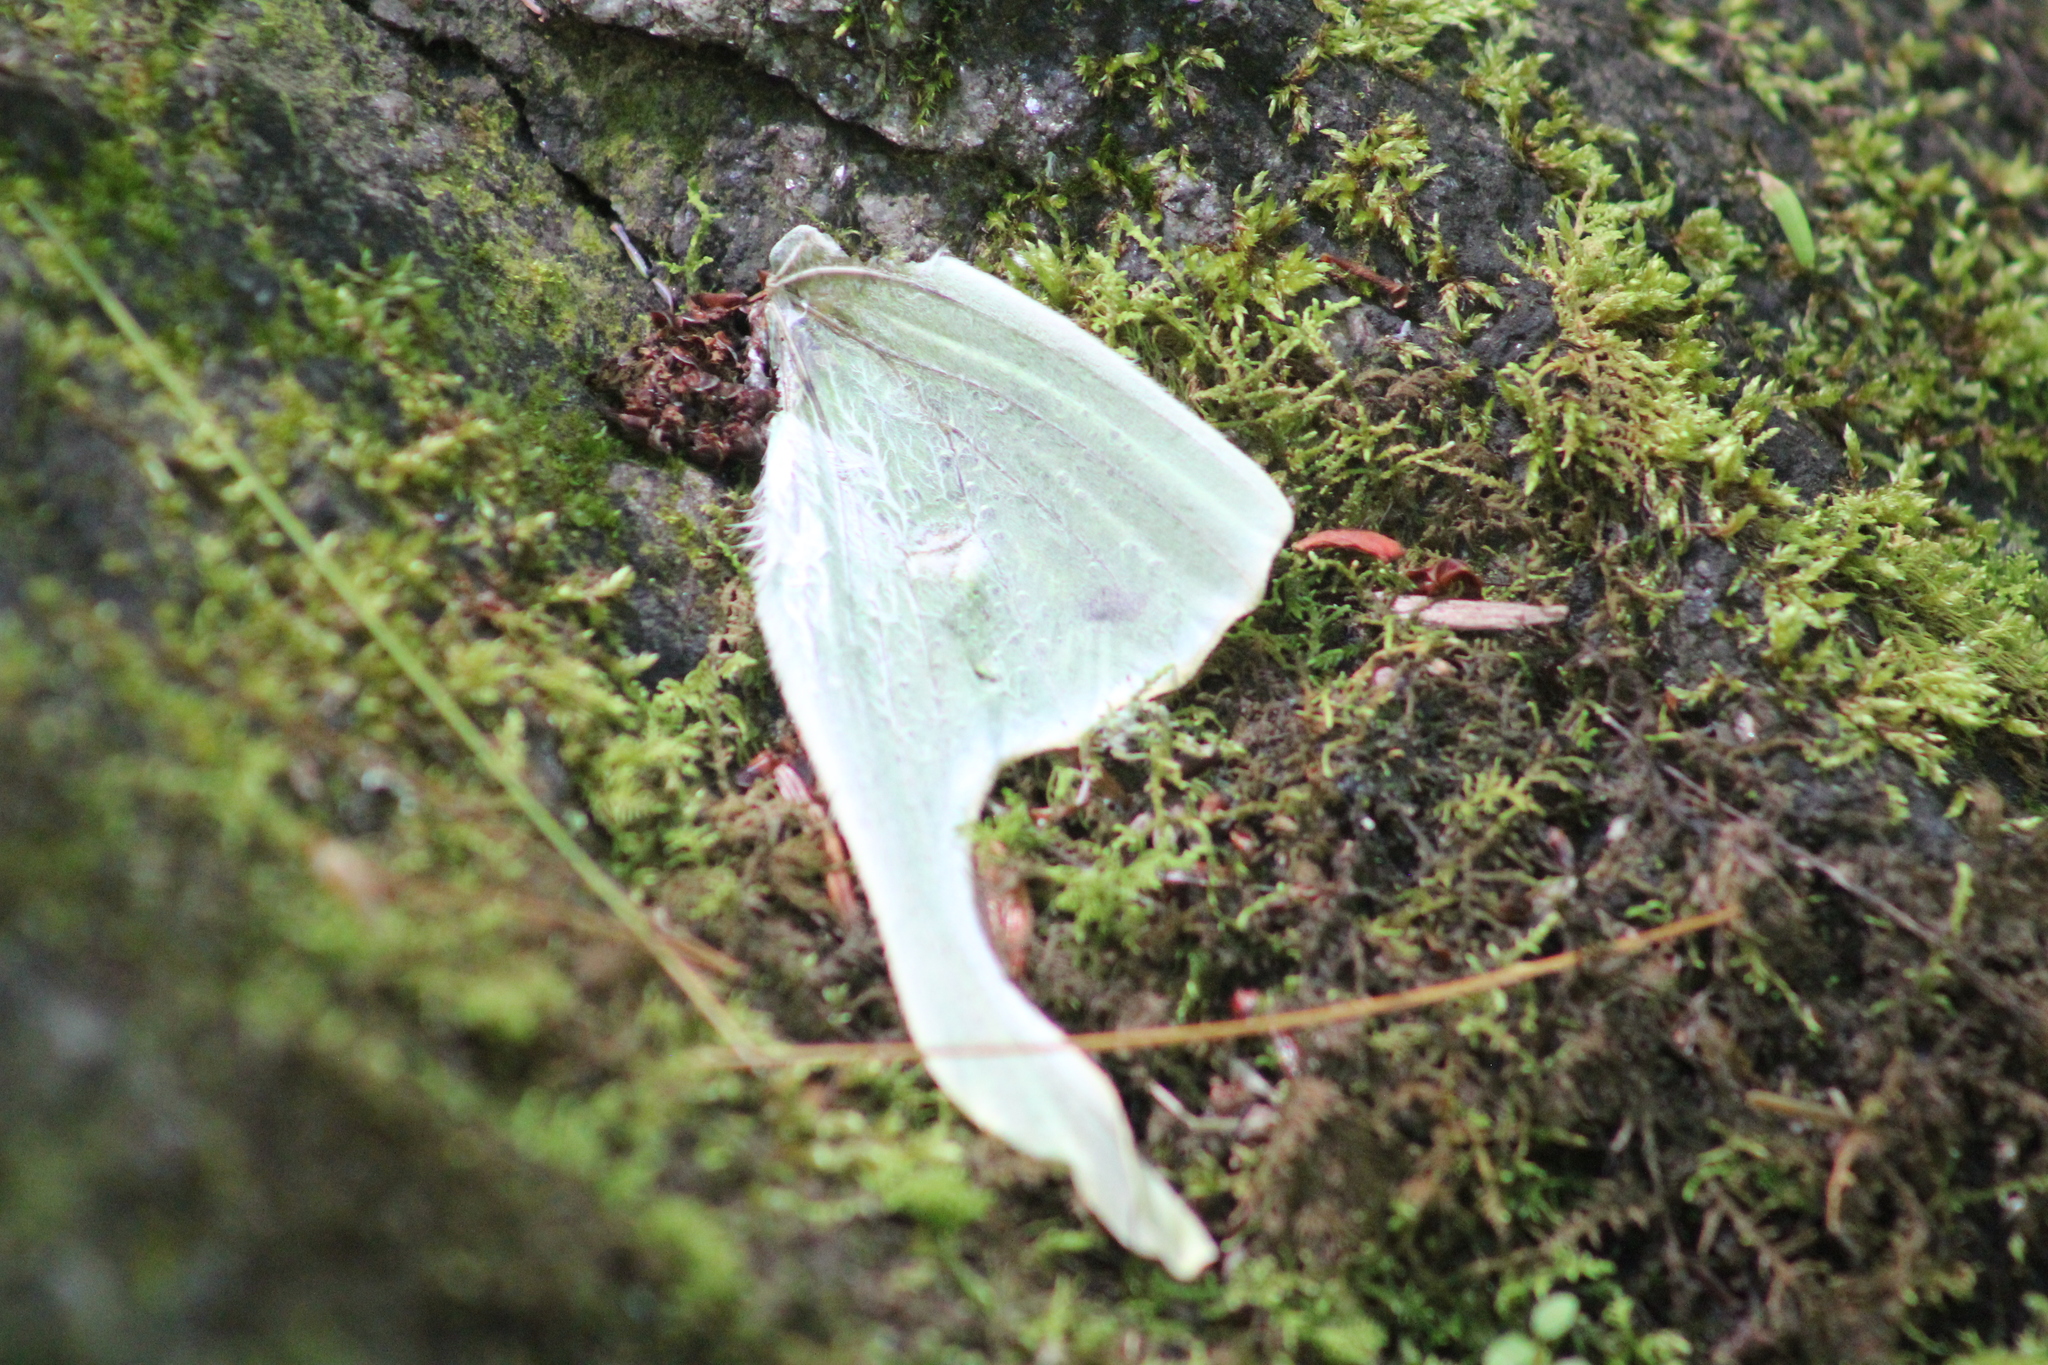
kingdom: Animalia
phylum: Arthropoda
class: Insecta
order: Lepidoptera
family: Saturniidae
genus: Actias
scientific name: Actias luna
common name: Luna moth
